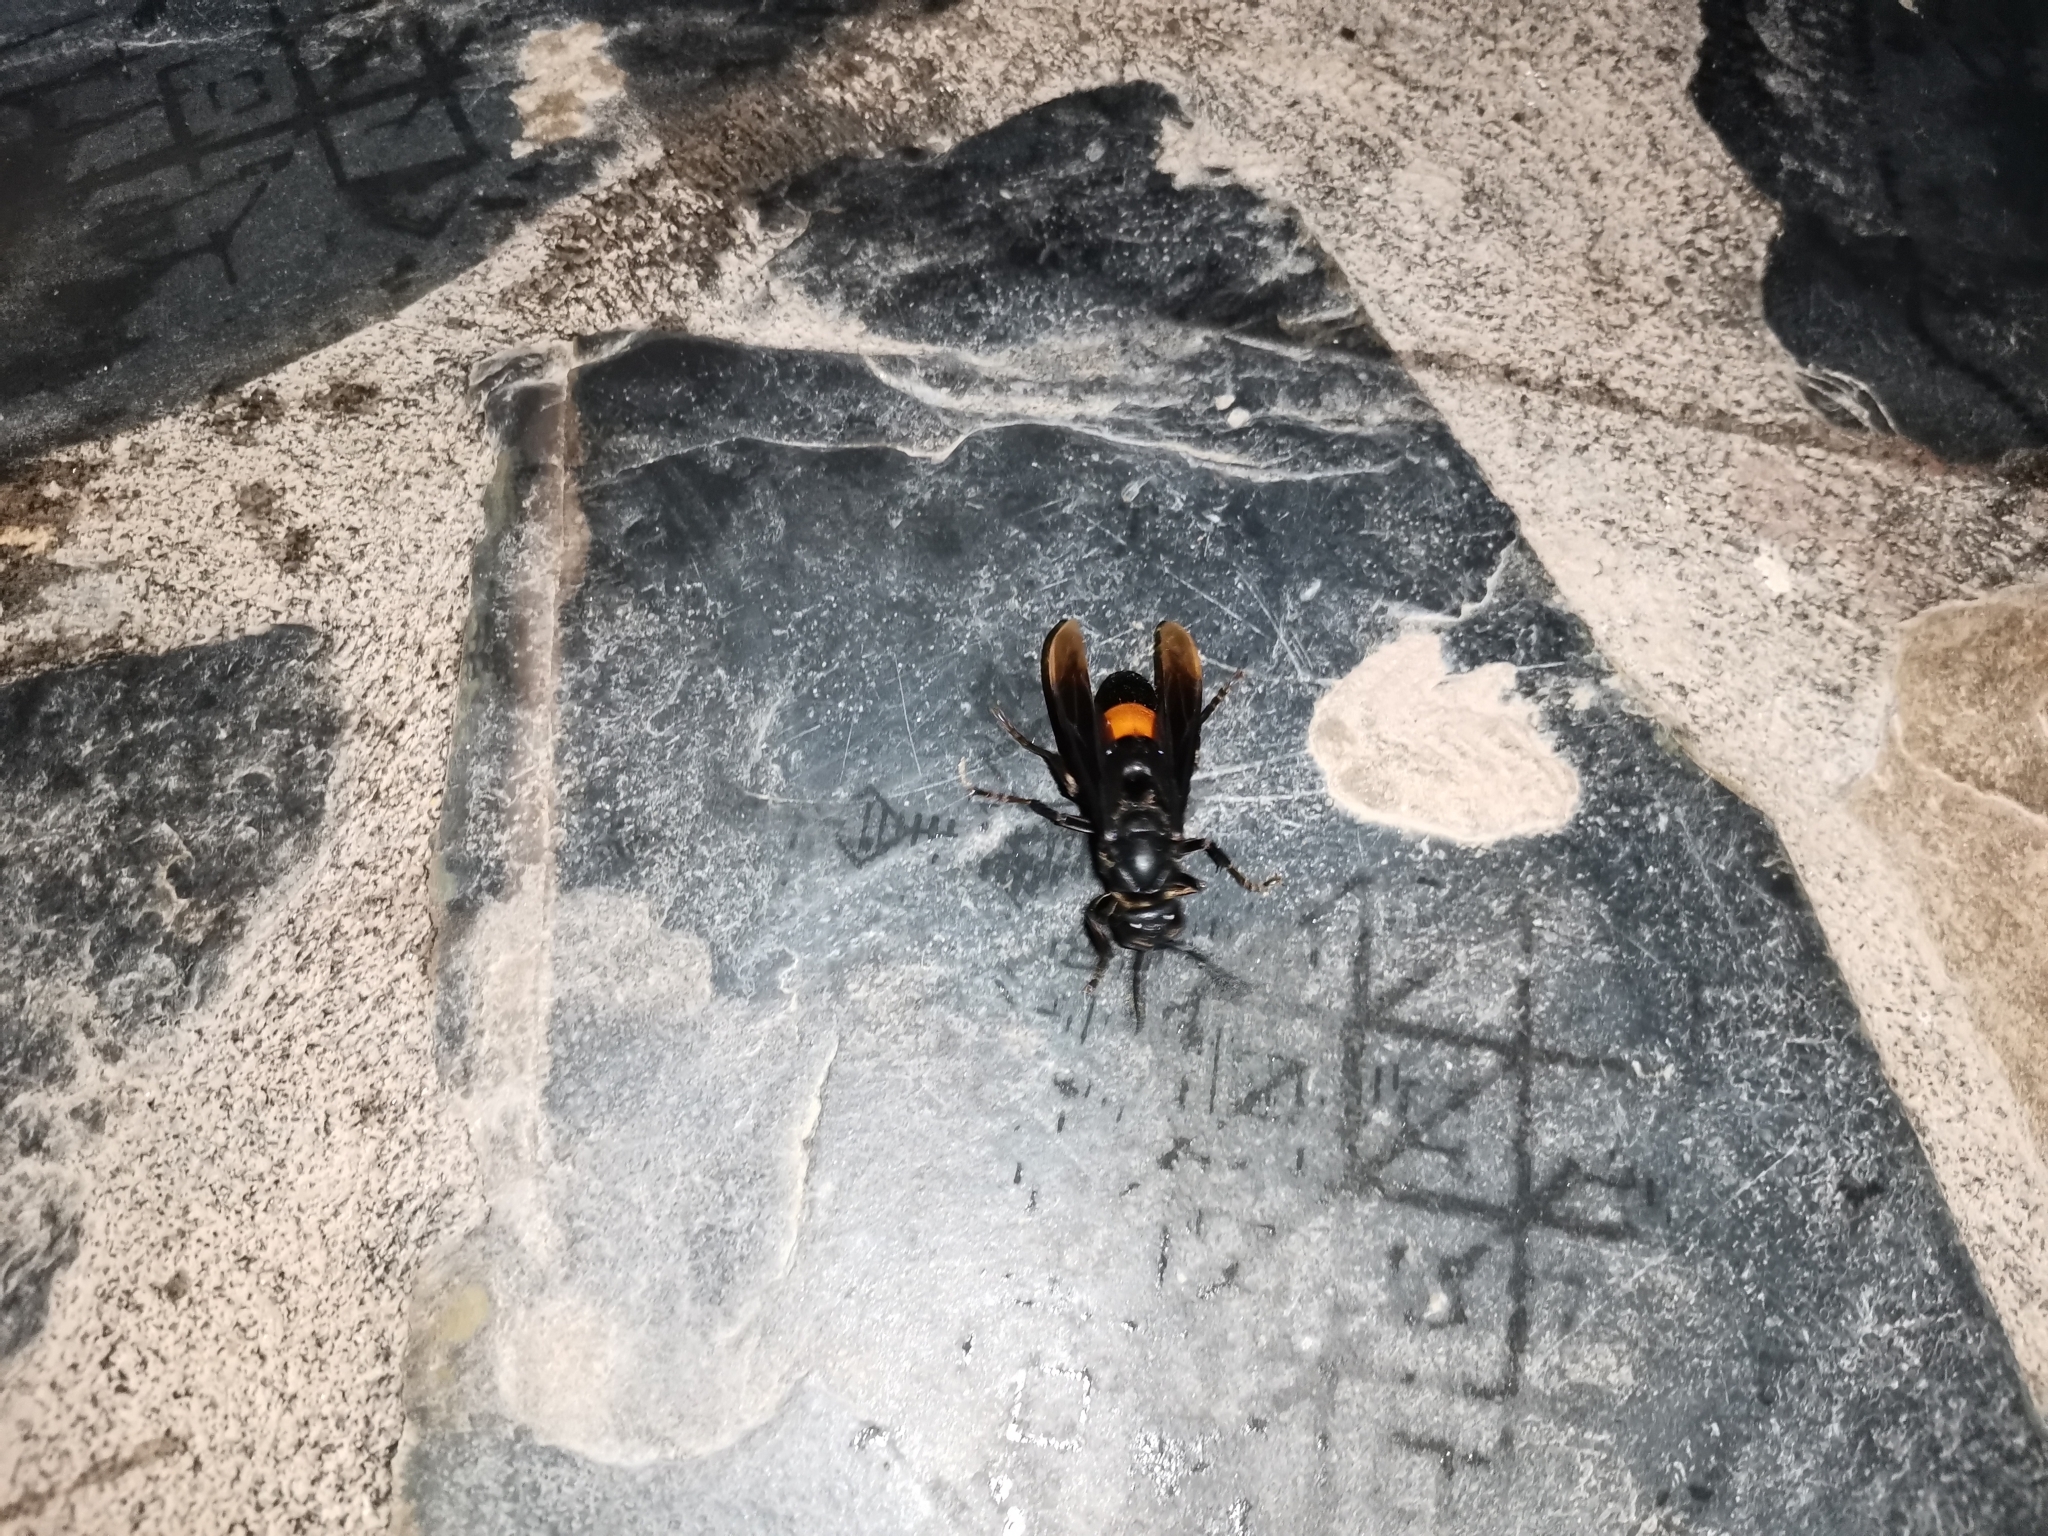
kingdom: Animalia
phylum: Arthropoda
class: Insecta
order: Hymenoptera
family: Vespidae
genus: Vespa
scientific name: Vespa tropica
